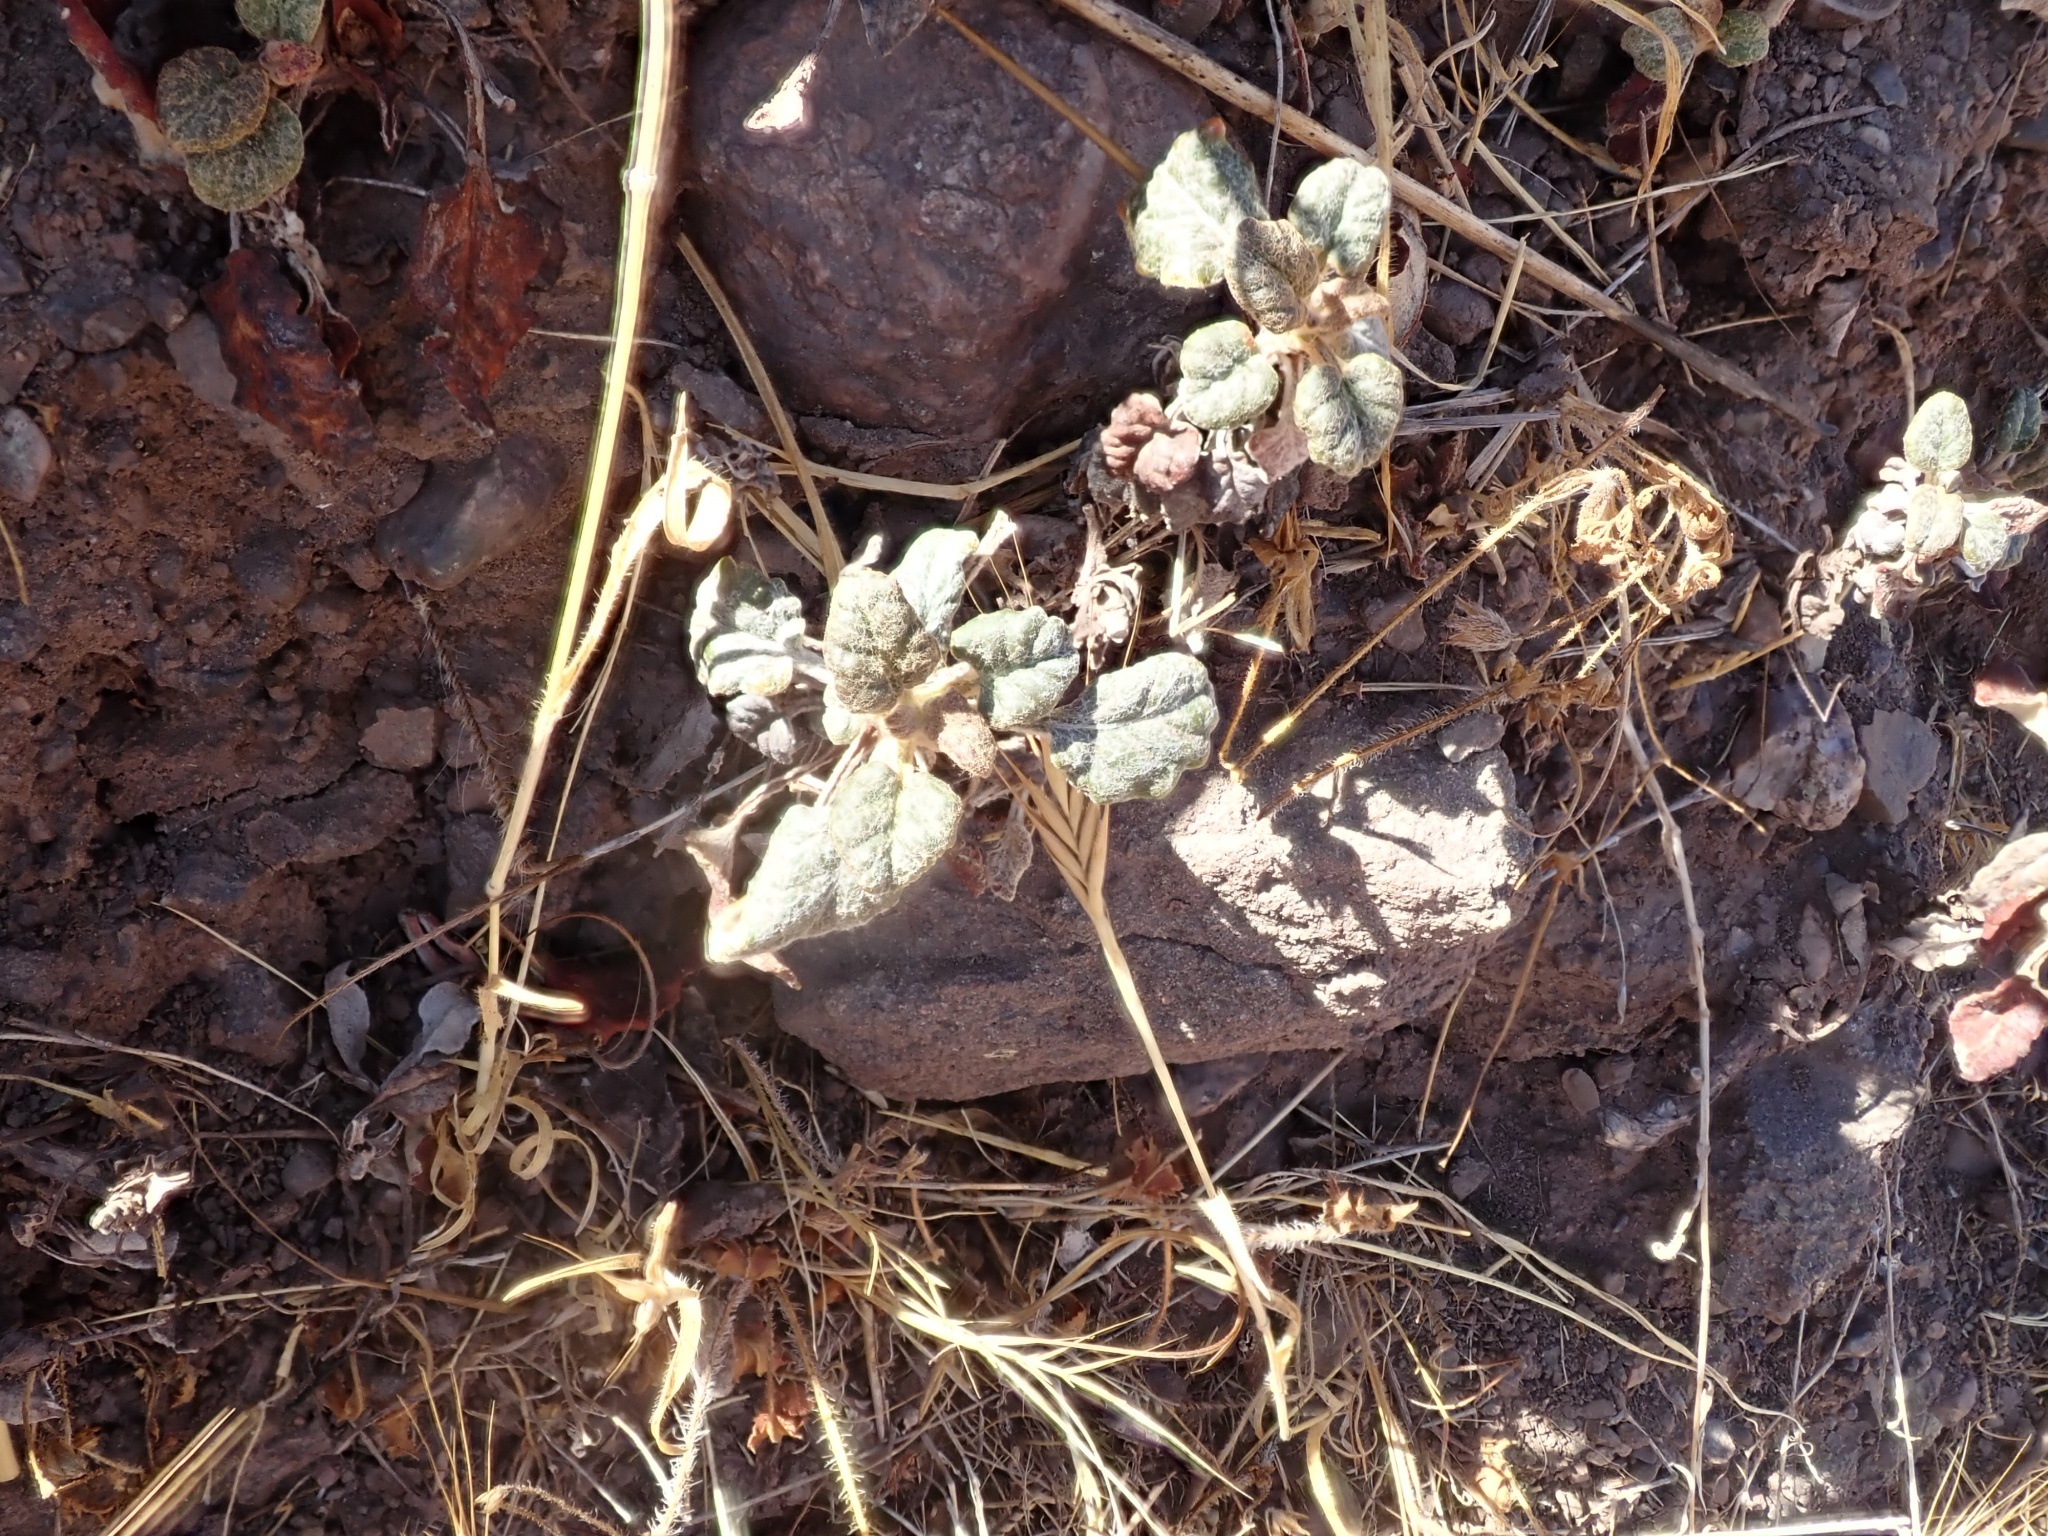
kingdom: Plantae
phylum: Tracheophyta
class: Magnoliopsida
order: Caryophyllales
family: Polygonaceae
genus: Eriogonum
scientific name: Eriogonum nudum
